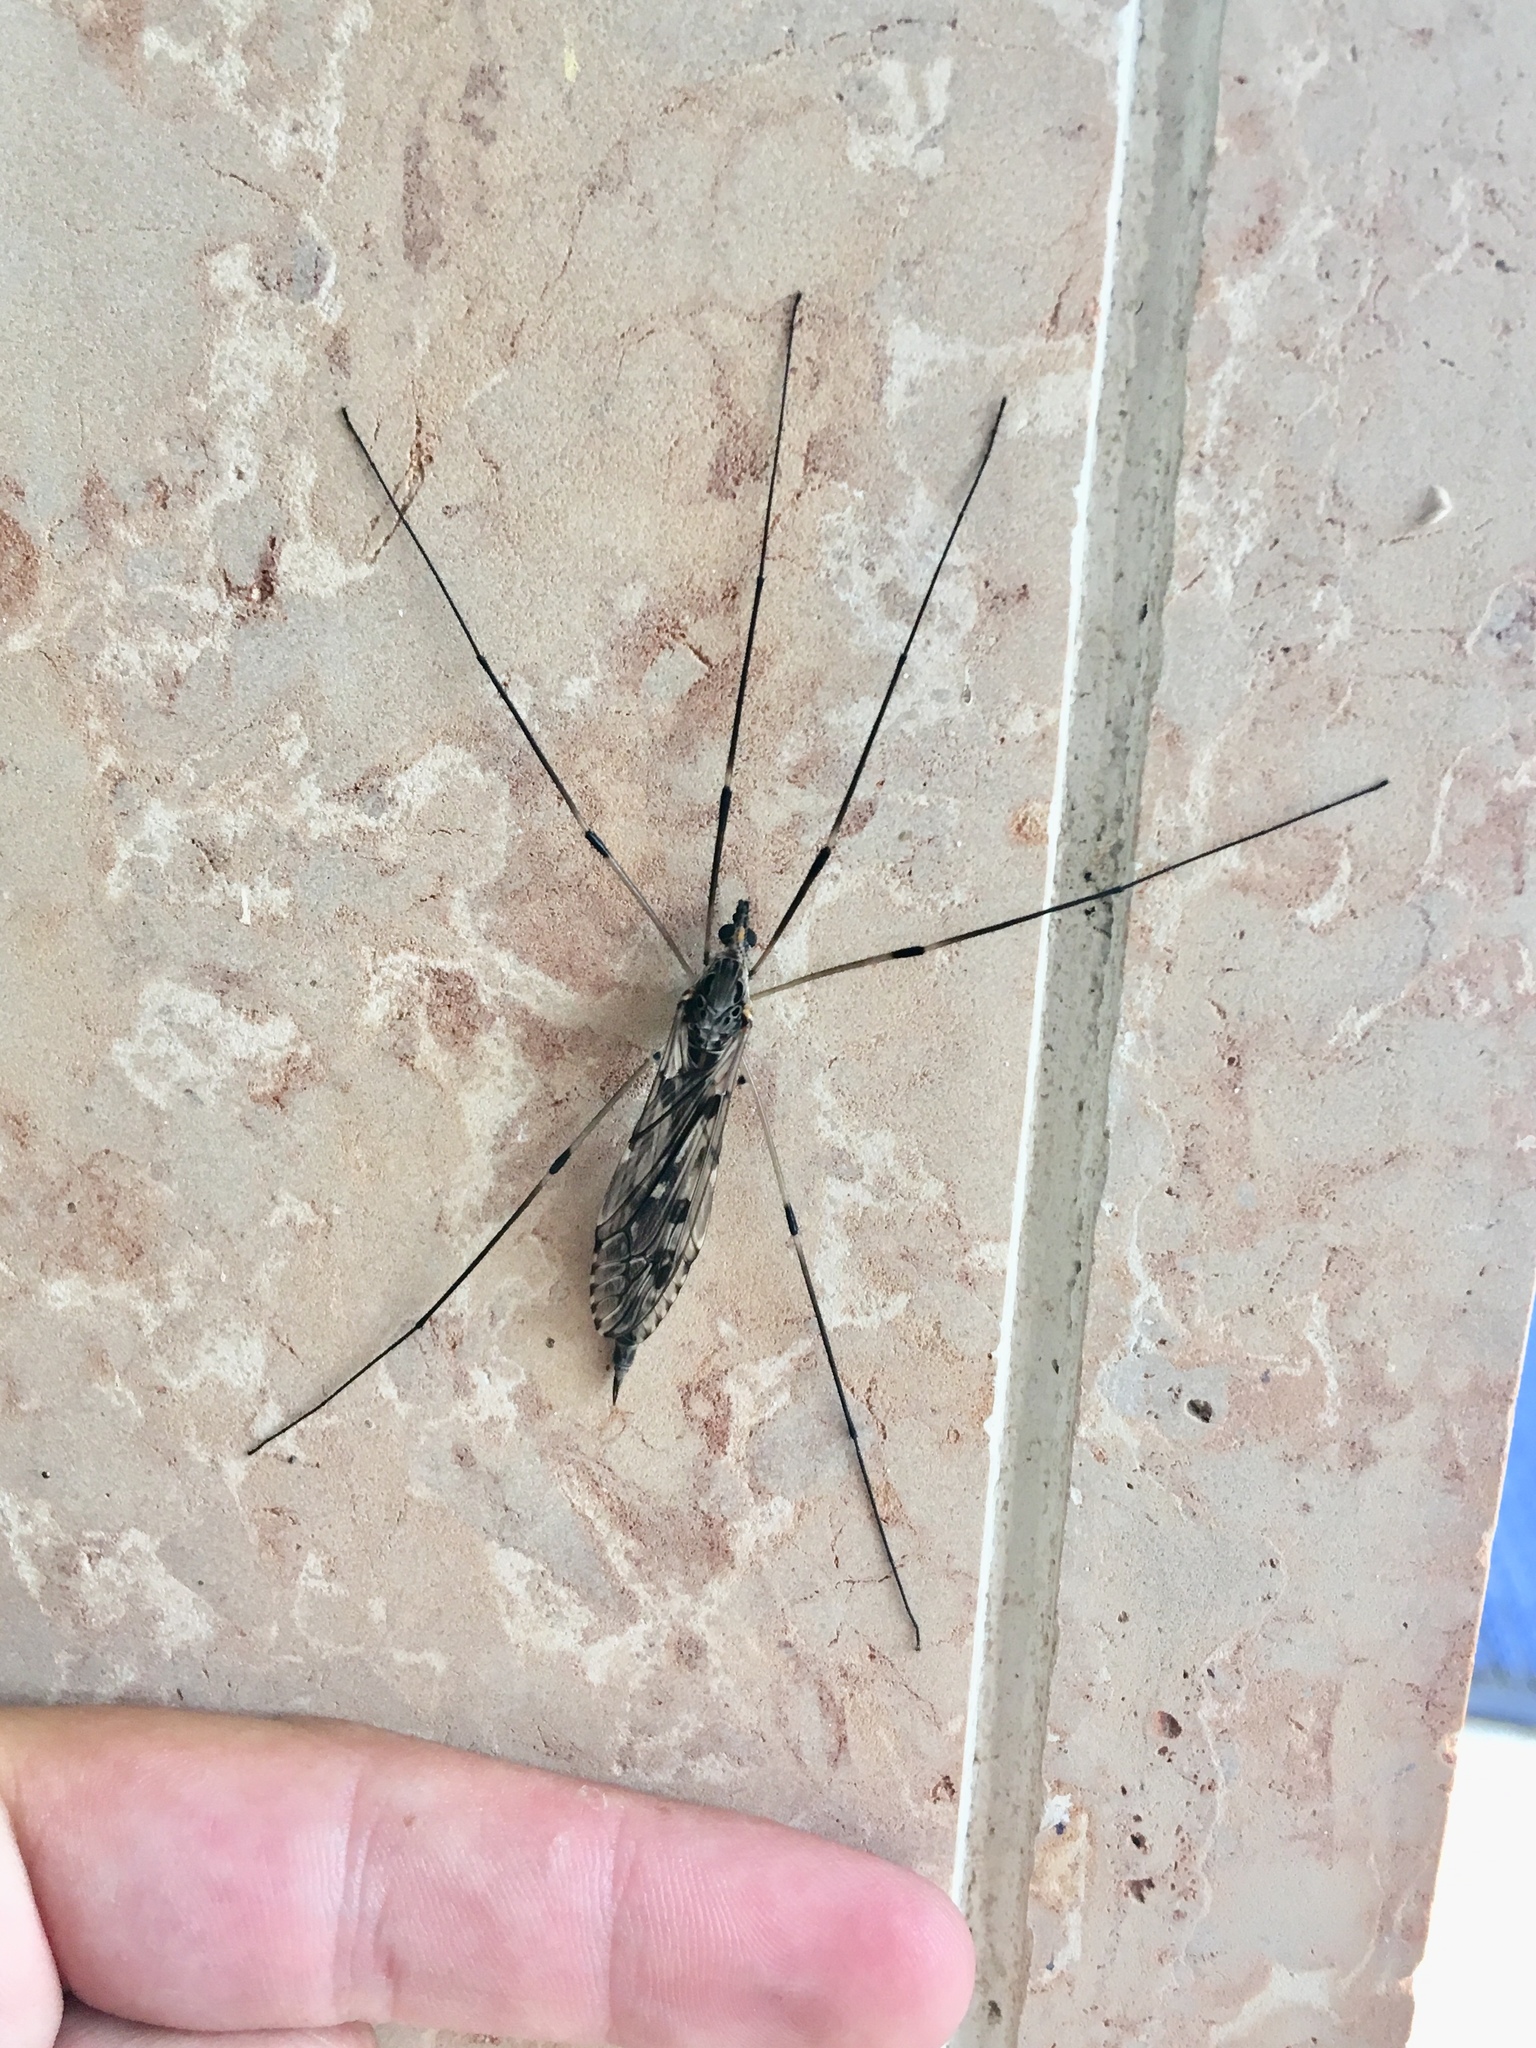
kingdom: Animalia
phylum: Arthropoda
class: Insecta
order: Diptera
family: Tipulidae
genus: Tipula
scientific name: Tipula abdominalis
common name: Giant crane fly
